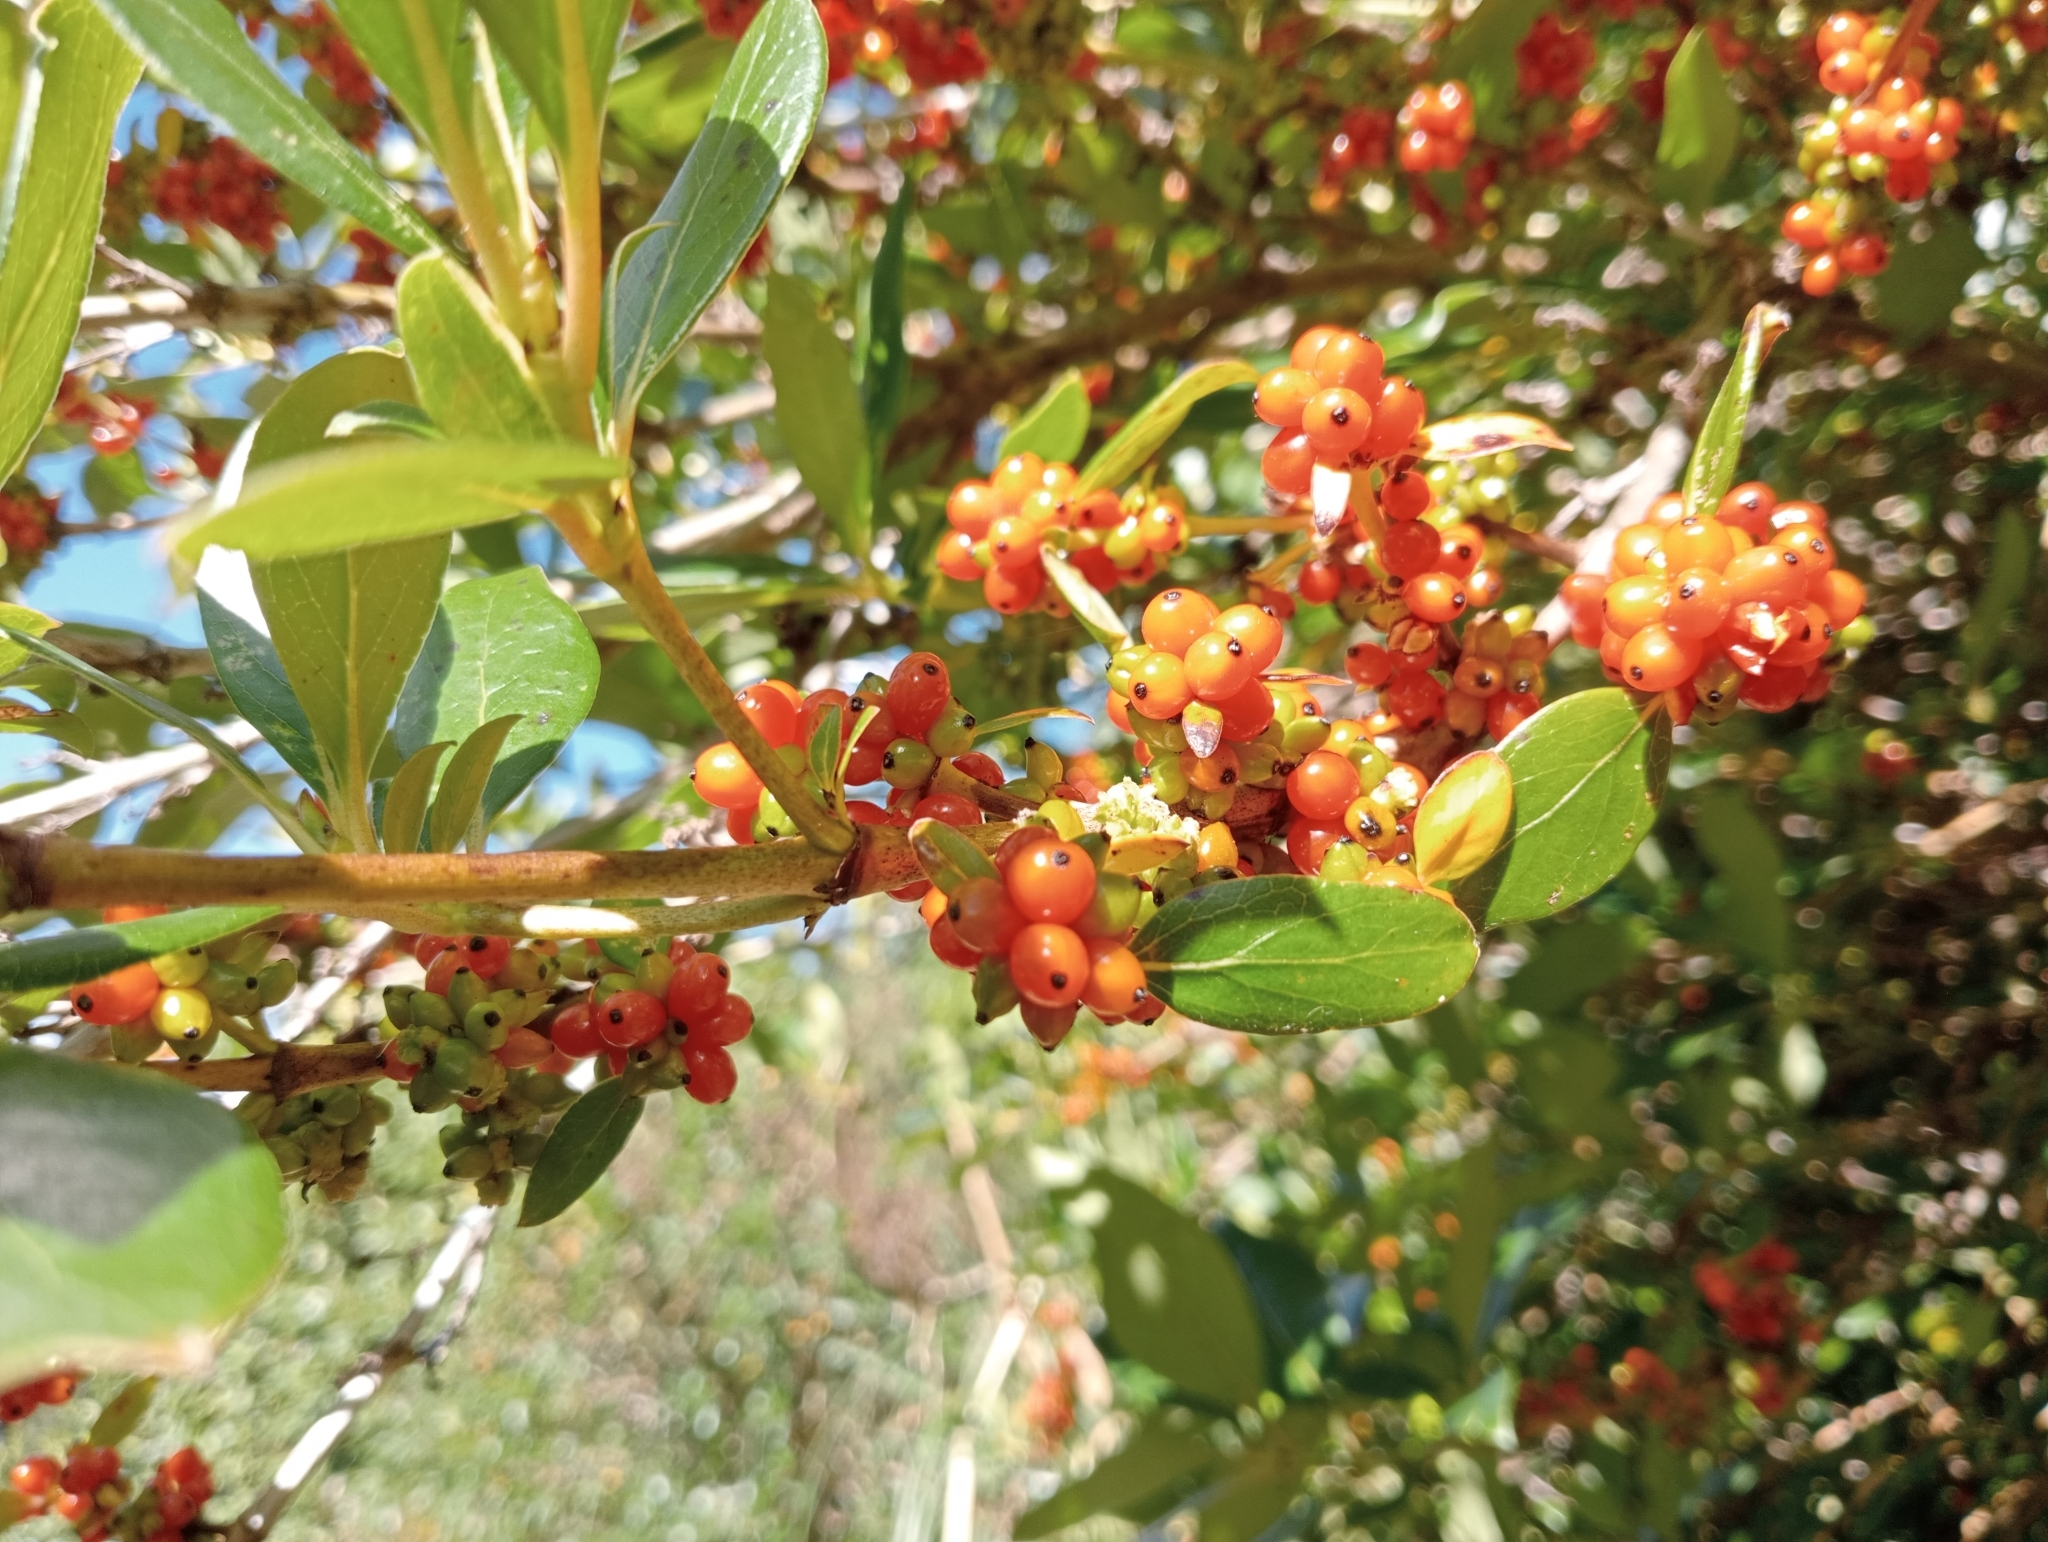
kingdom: Plantae
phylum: Tracheophyta
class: Magnoliopsida
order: Gentianales
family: Rubiaceae
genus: Coprosma
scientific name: Coprosma robusta
